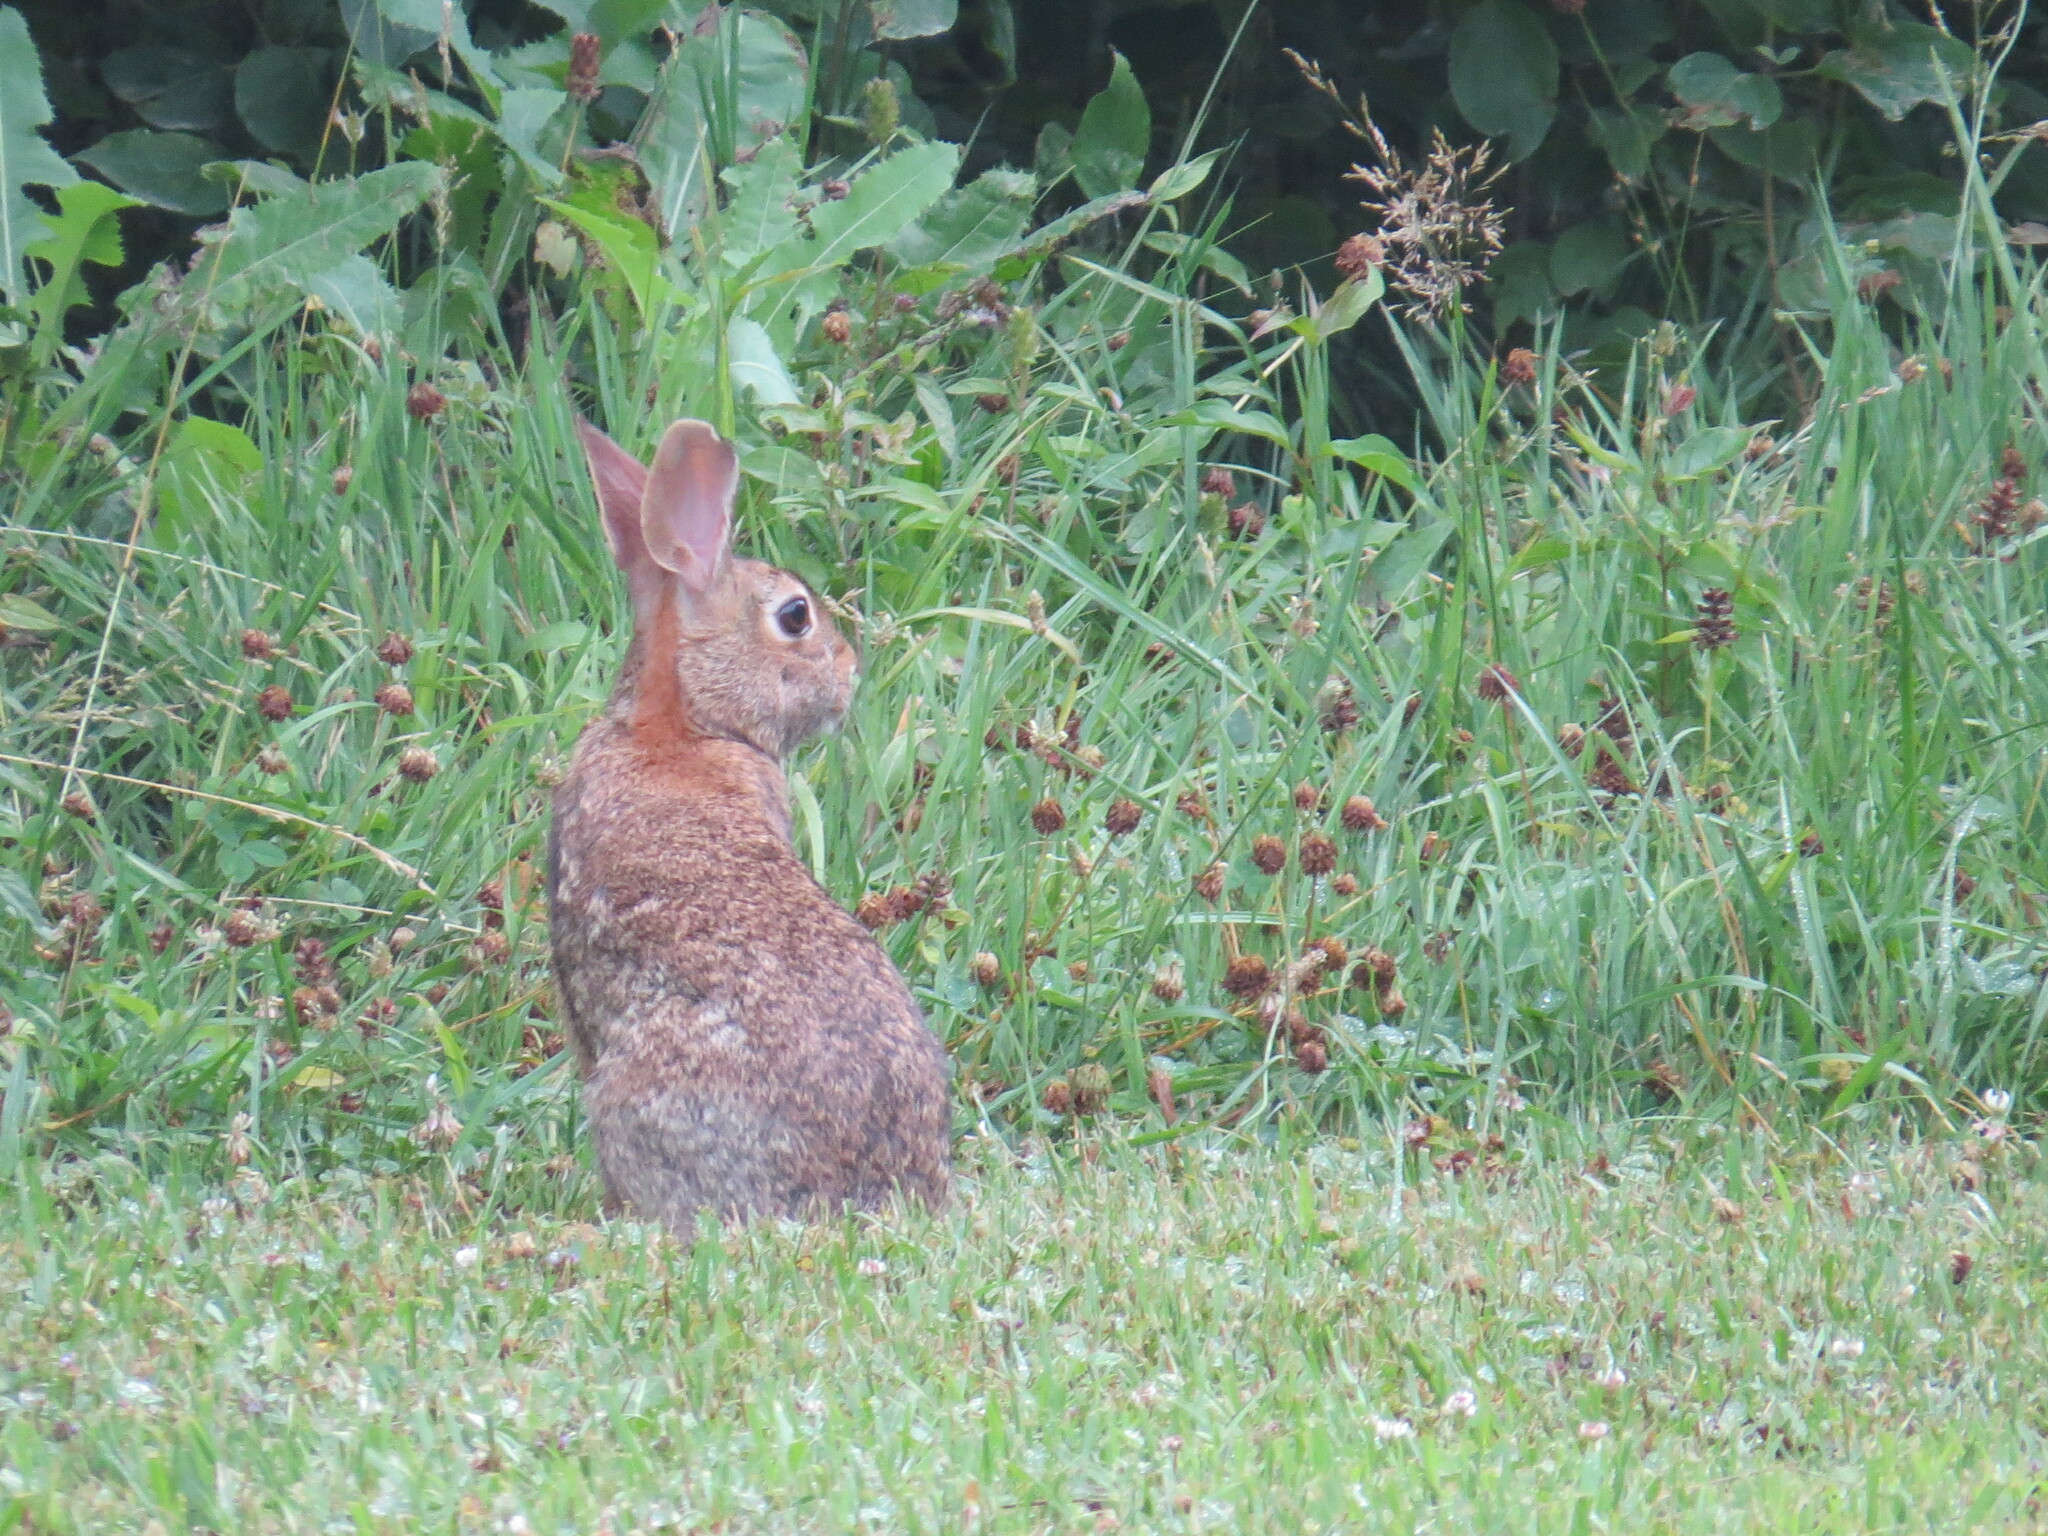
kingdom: Animalia
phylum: Chordata
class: Mammalia
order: Lagomorpha
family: Leporidae
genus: Sylvilagus
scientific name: Sylvilagus floridanus
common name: Eastern cottontail
